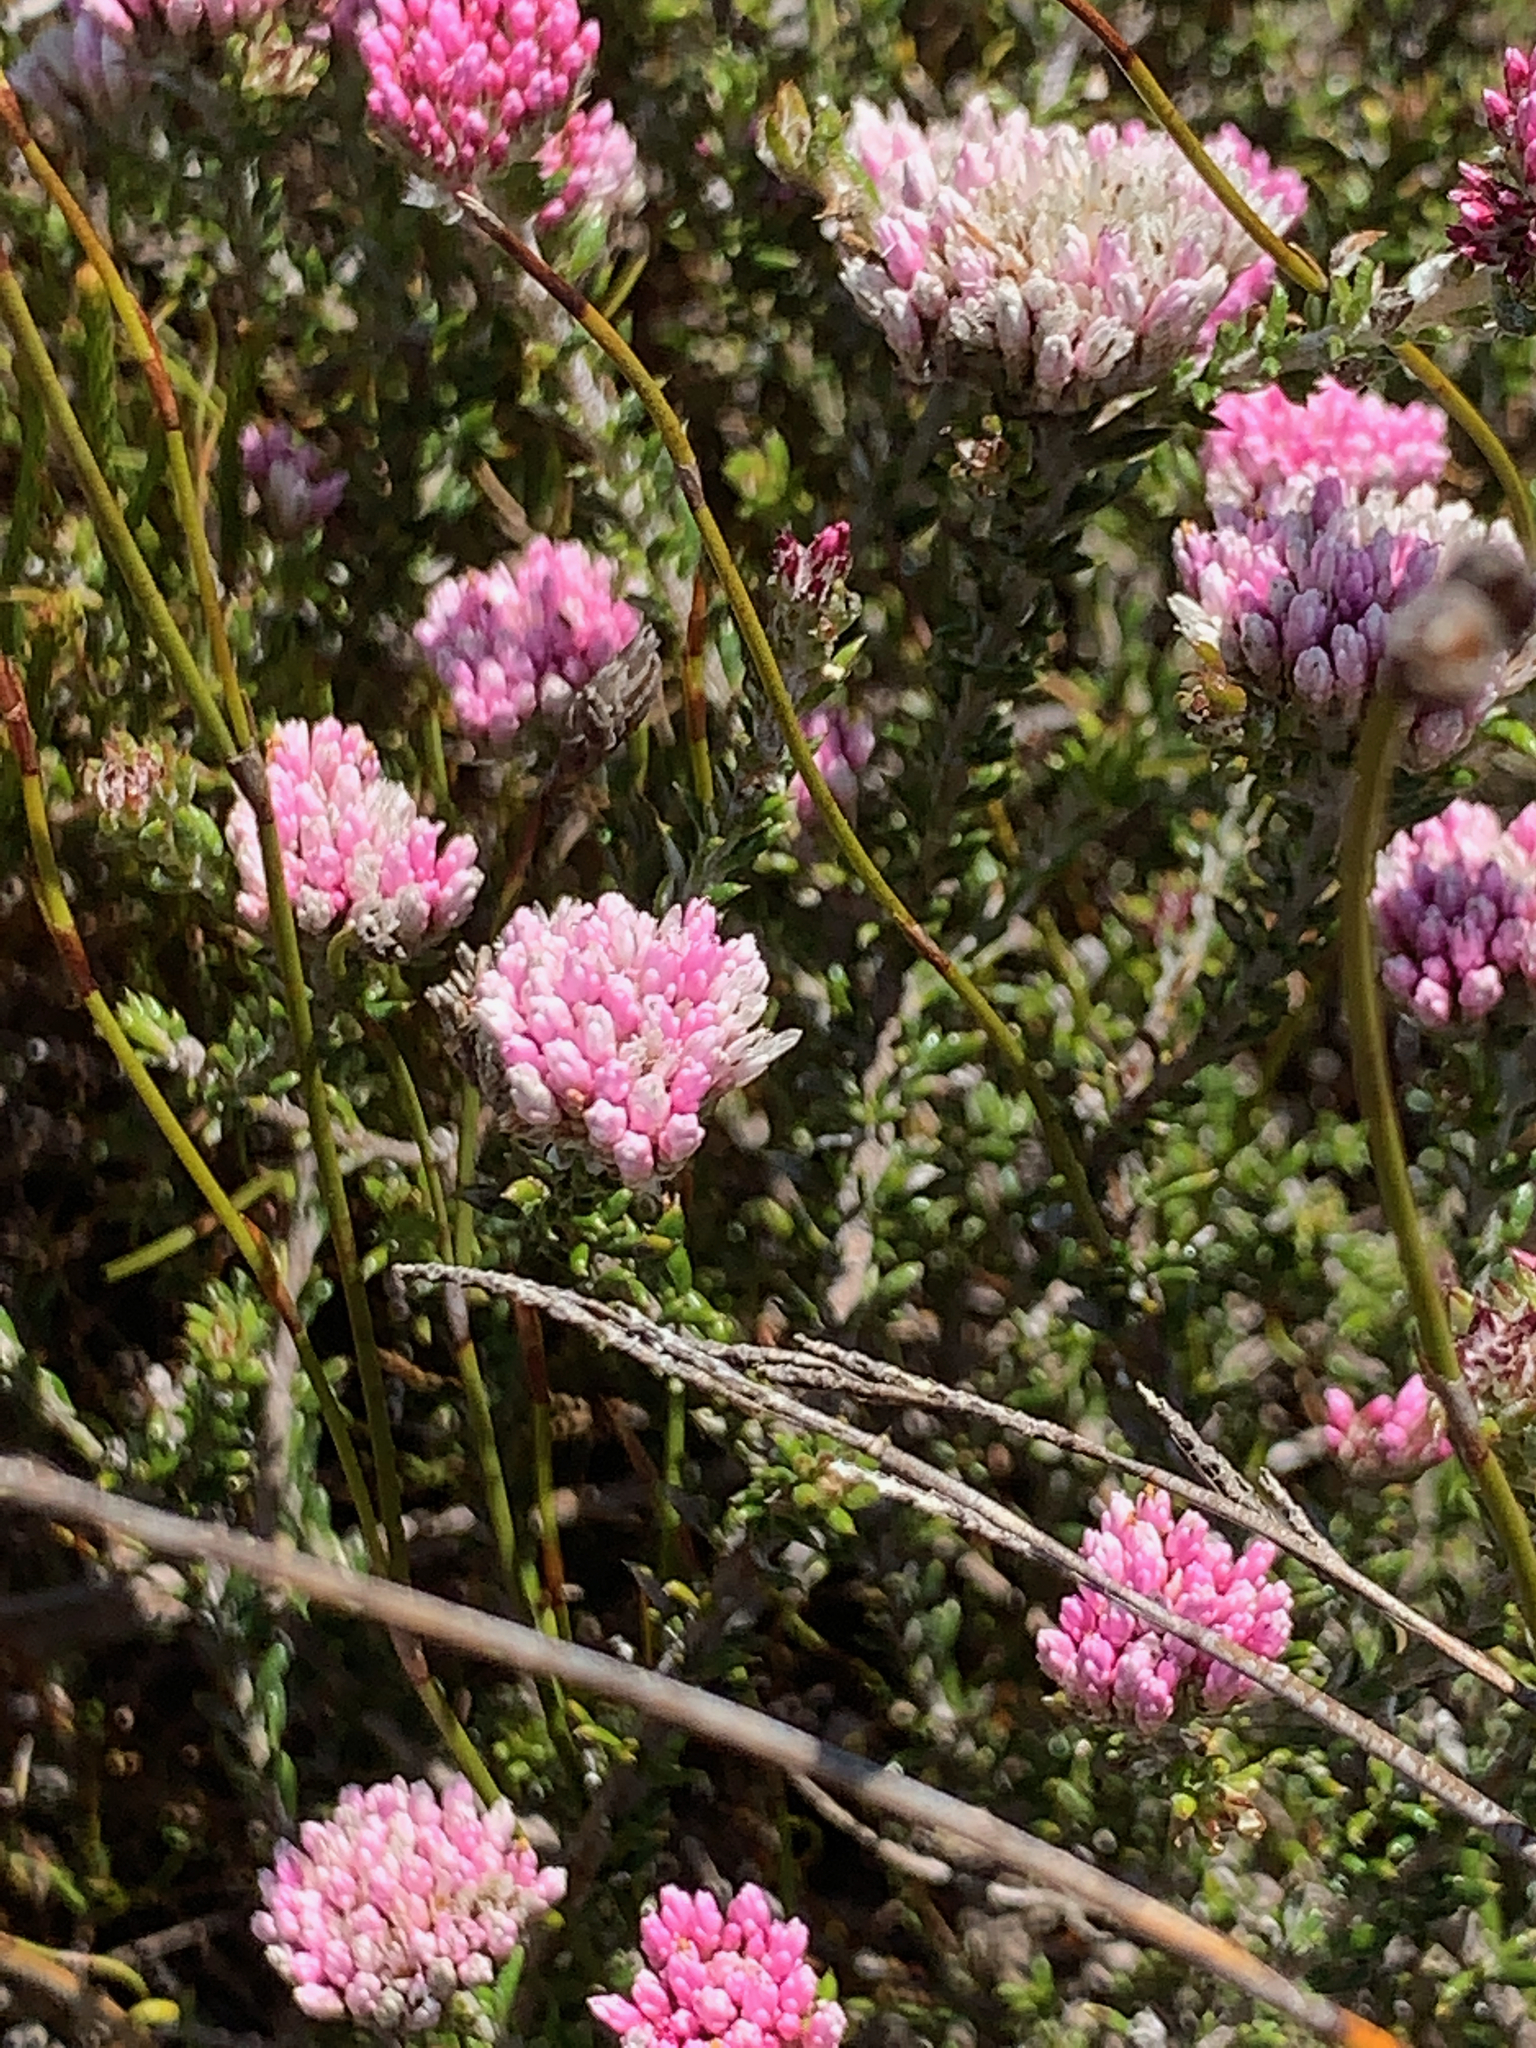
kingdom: Plantae
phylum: Tracheophyta
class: Magnoliopsida
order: Asterales
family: Asteraceae
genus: Metalasia
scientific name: Metalasia cymbifolia
